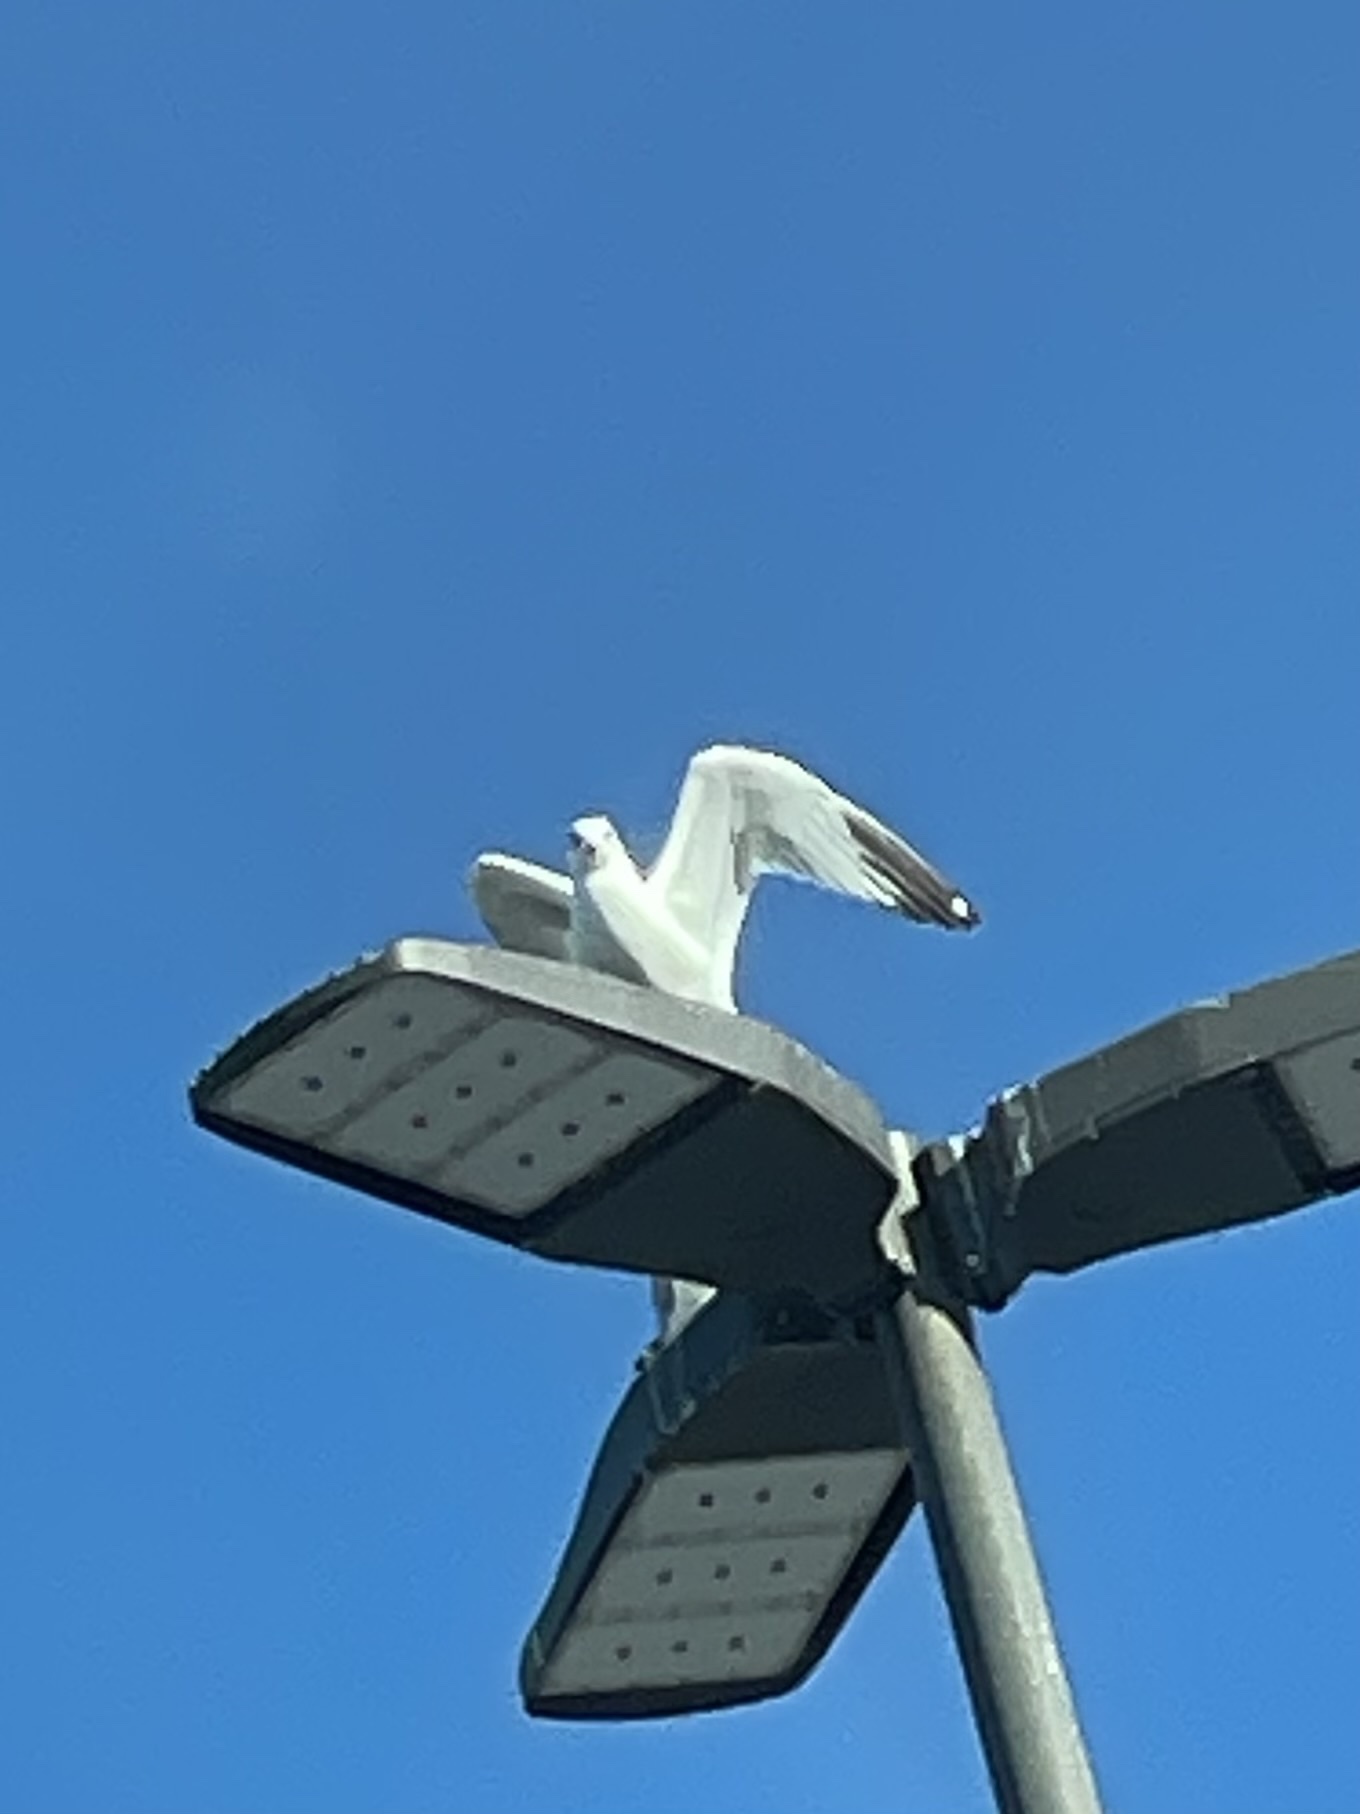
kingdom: Animalia
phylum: Chordata
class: Aves
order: Charadriiformes
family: Laridae
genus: Larus
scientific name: Larus delawarensis
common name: Ring-billed gull
